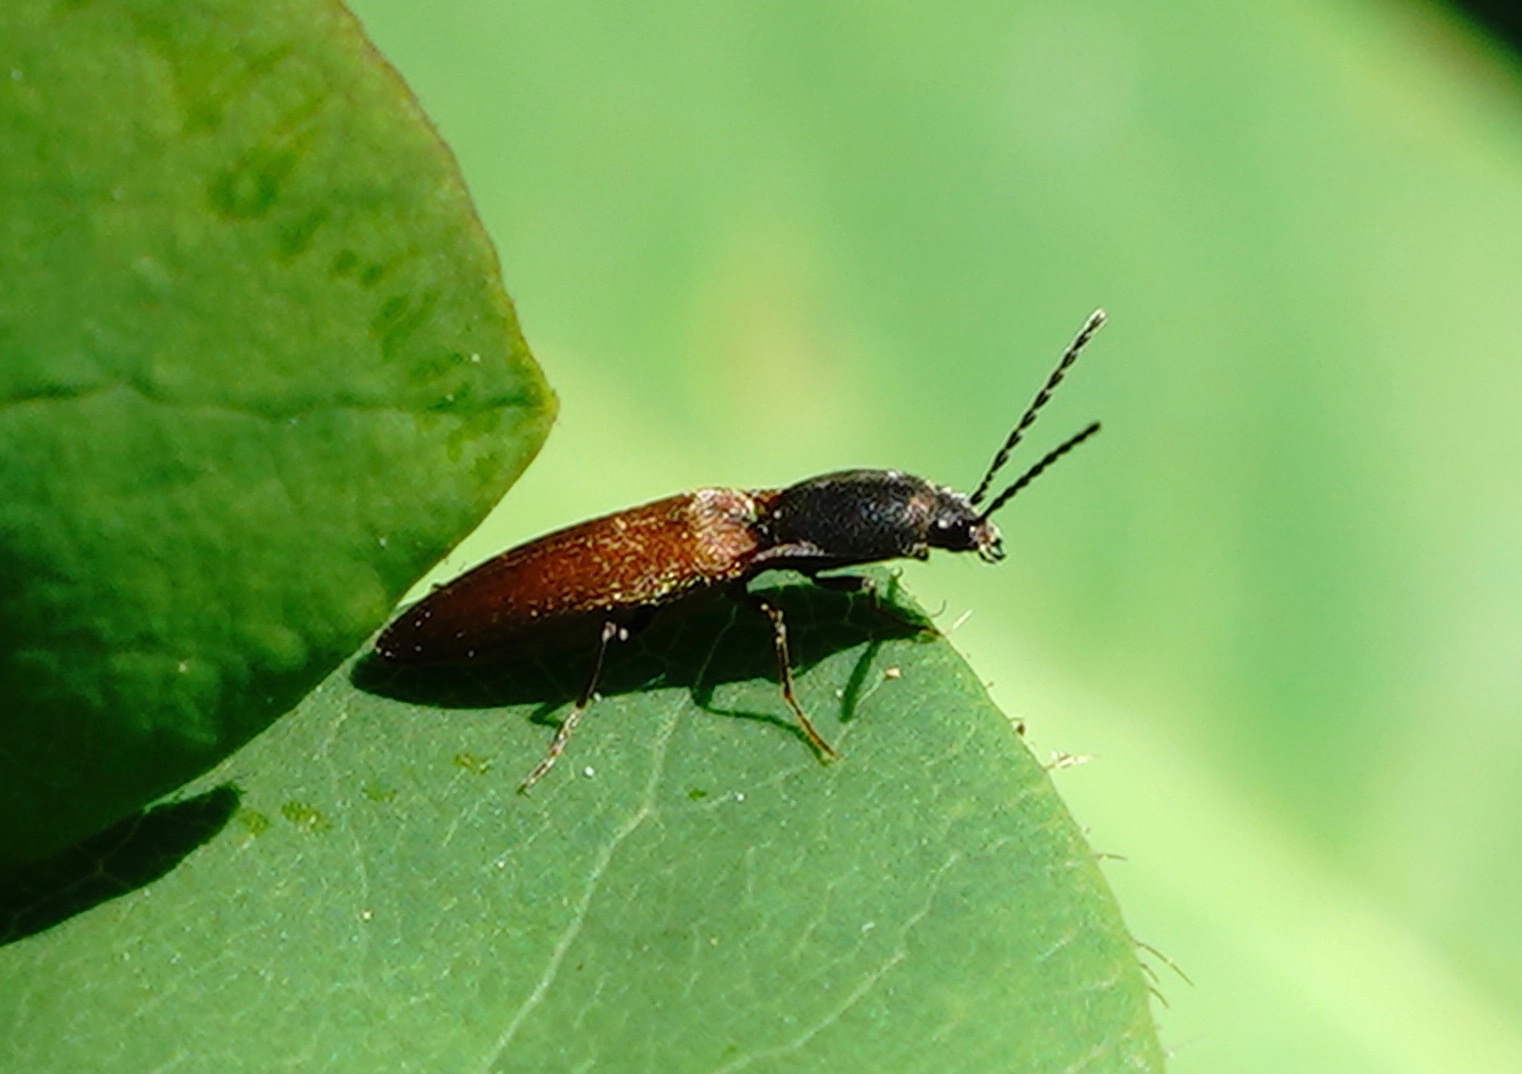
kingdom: Animalia
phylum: Arthropoda
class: Insecta
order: Coleoptera
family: Elateridae
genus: Dolerosomus
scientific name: Dolerosomus silaceus
